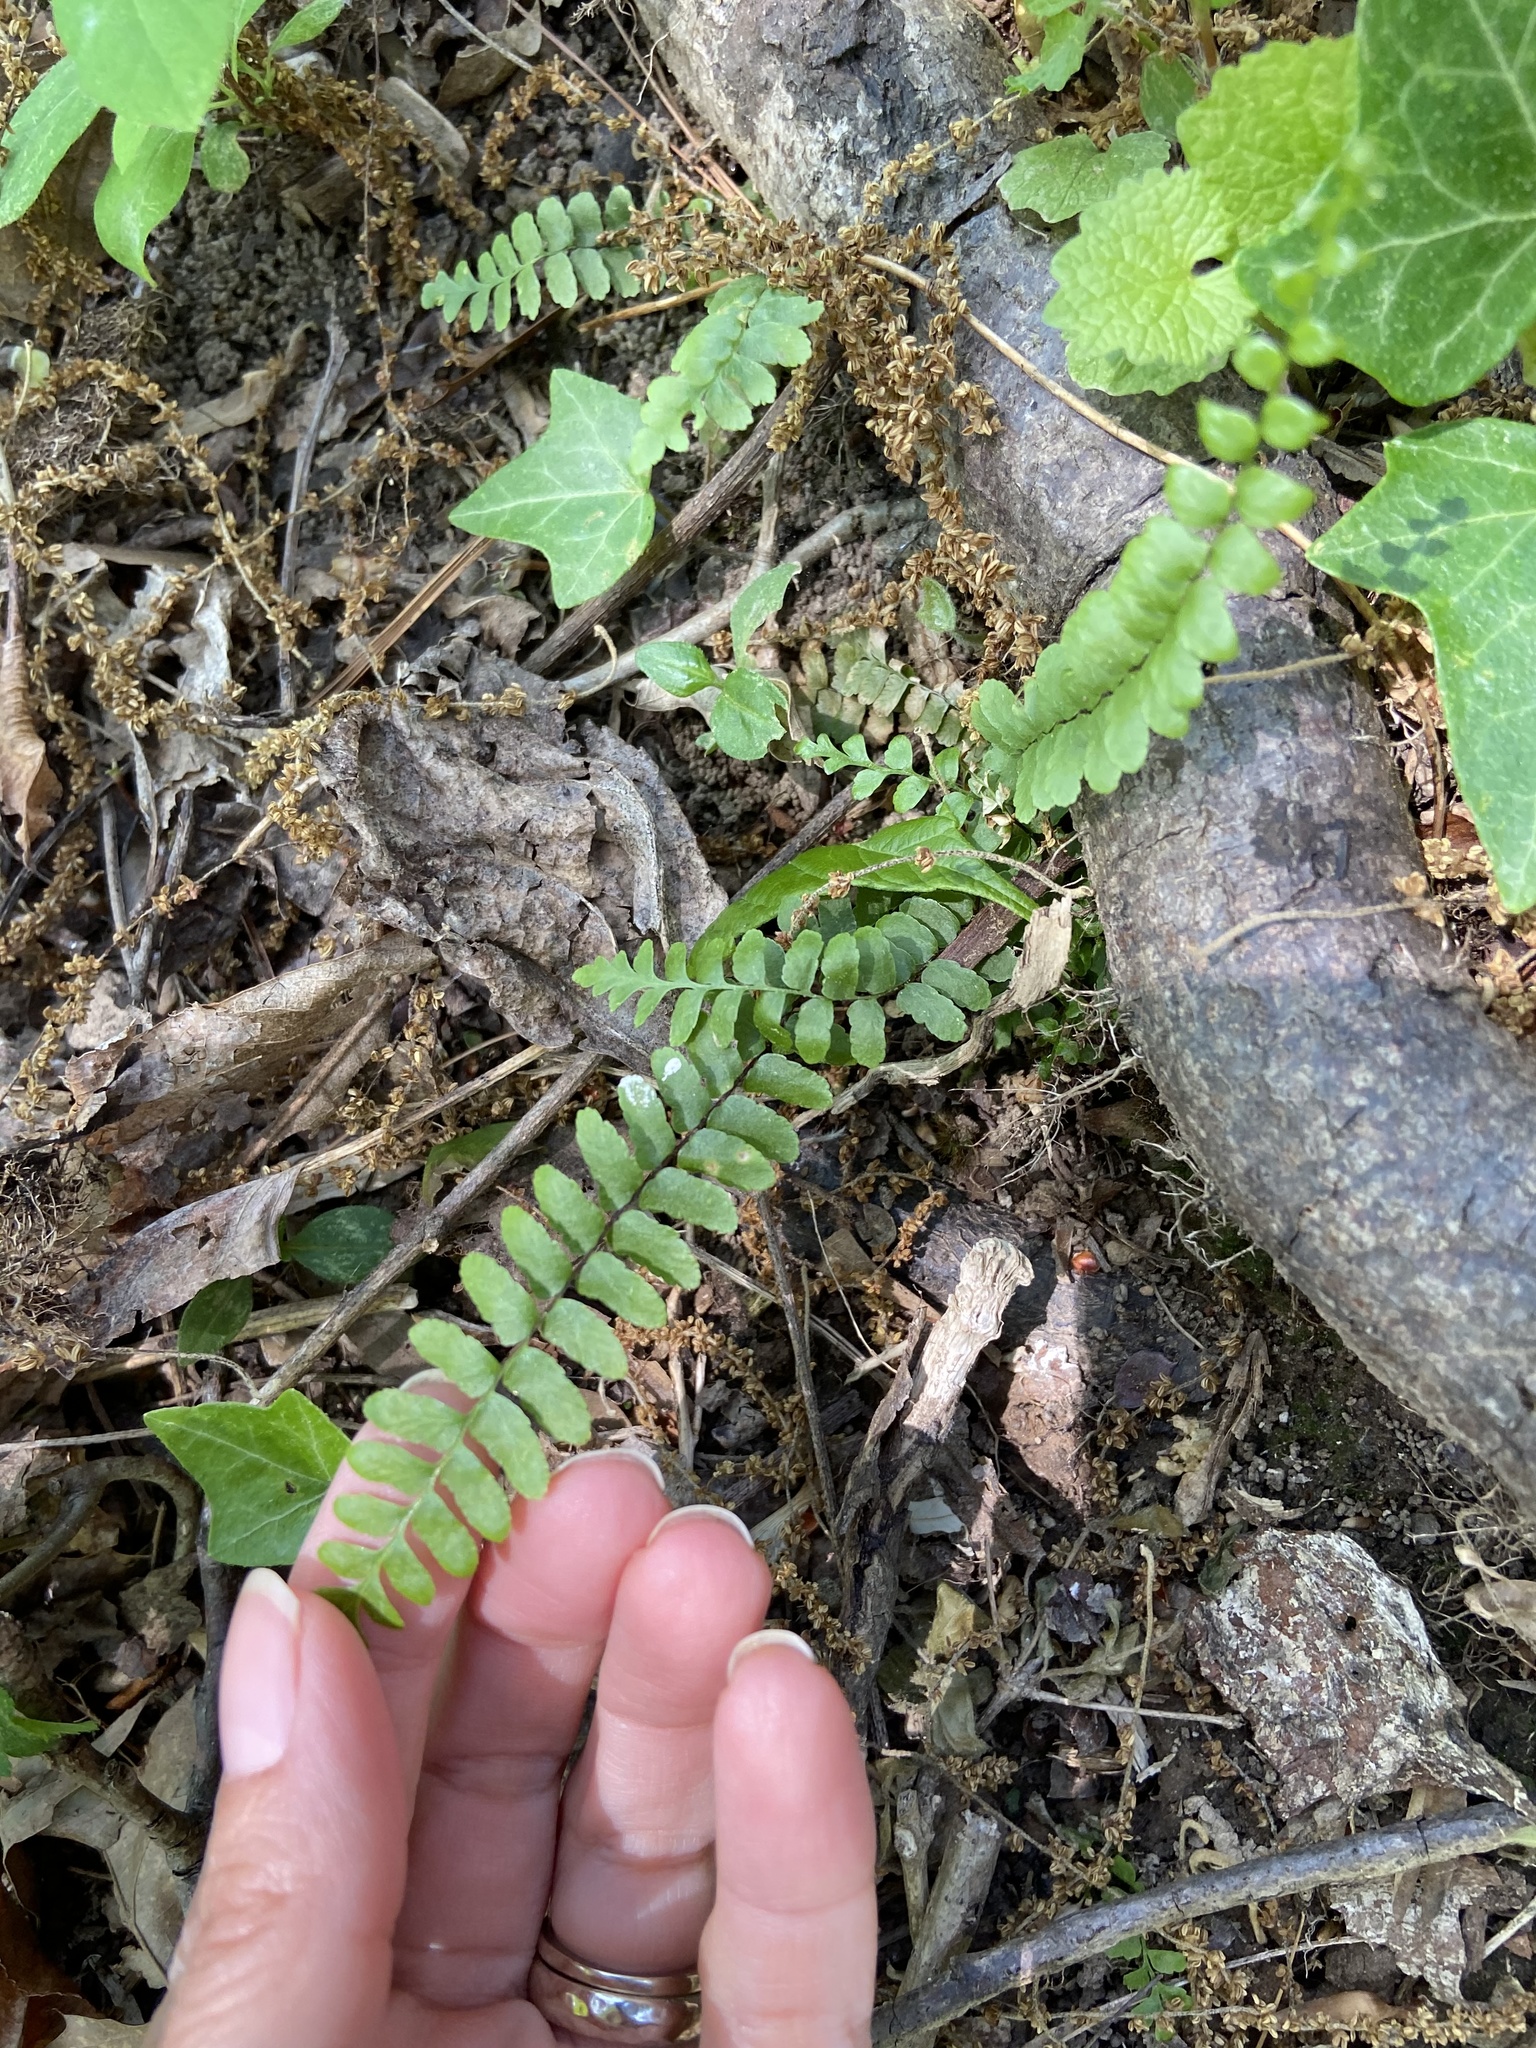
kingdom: Plantae
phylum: Tracheophyta
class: Polypodiopsida
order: Polypodiales
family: Aspleniaceae
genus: Asplenium
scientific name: Asplenium platyneuron
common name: Ebony spleenwort
